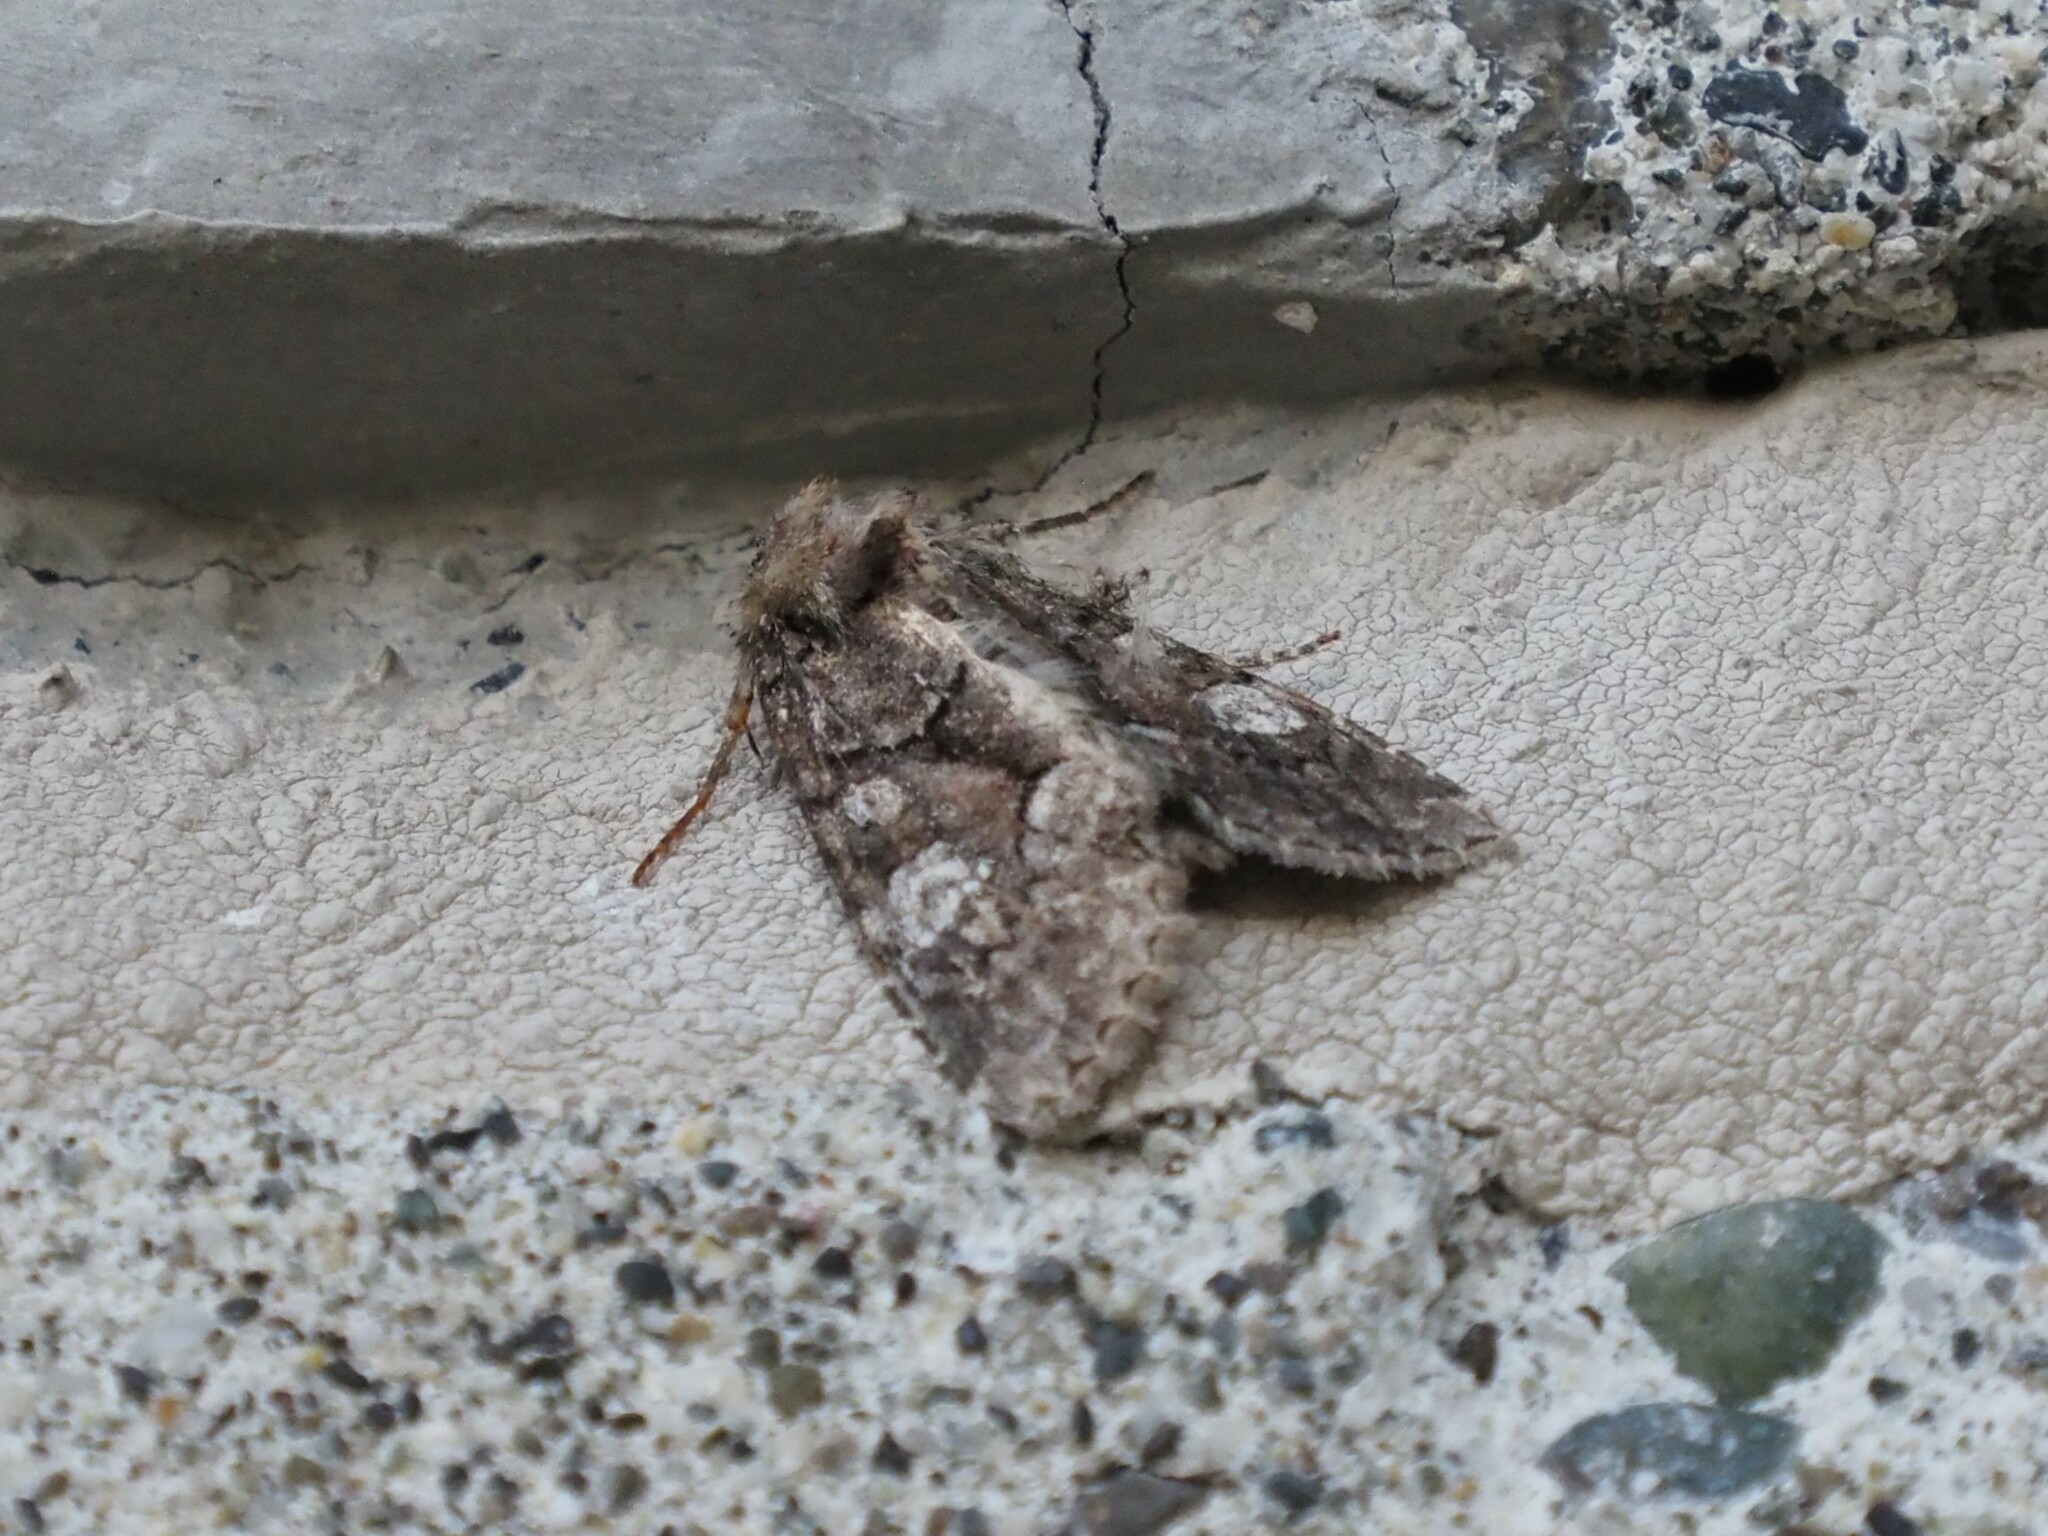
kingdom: Animalia
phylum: Arthropoda
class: Insecta
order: Lepidoptera
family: Noctuidae
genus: Fishia
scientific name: Fishia illocata
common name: Wandering brocade moth
